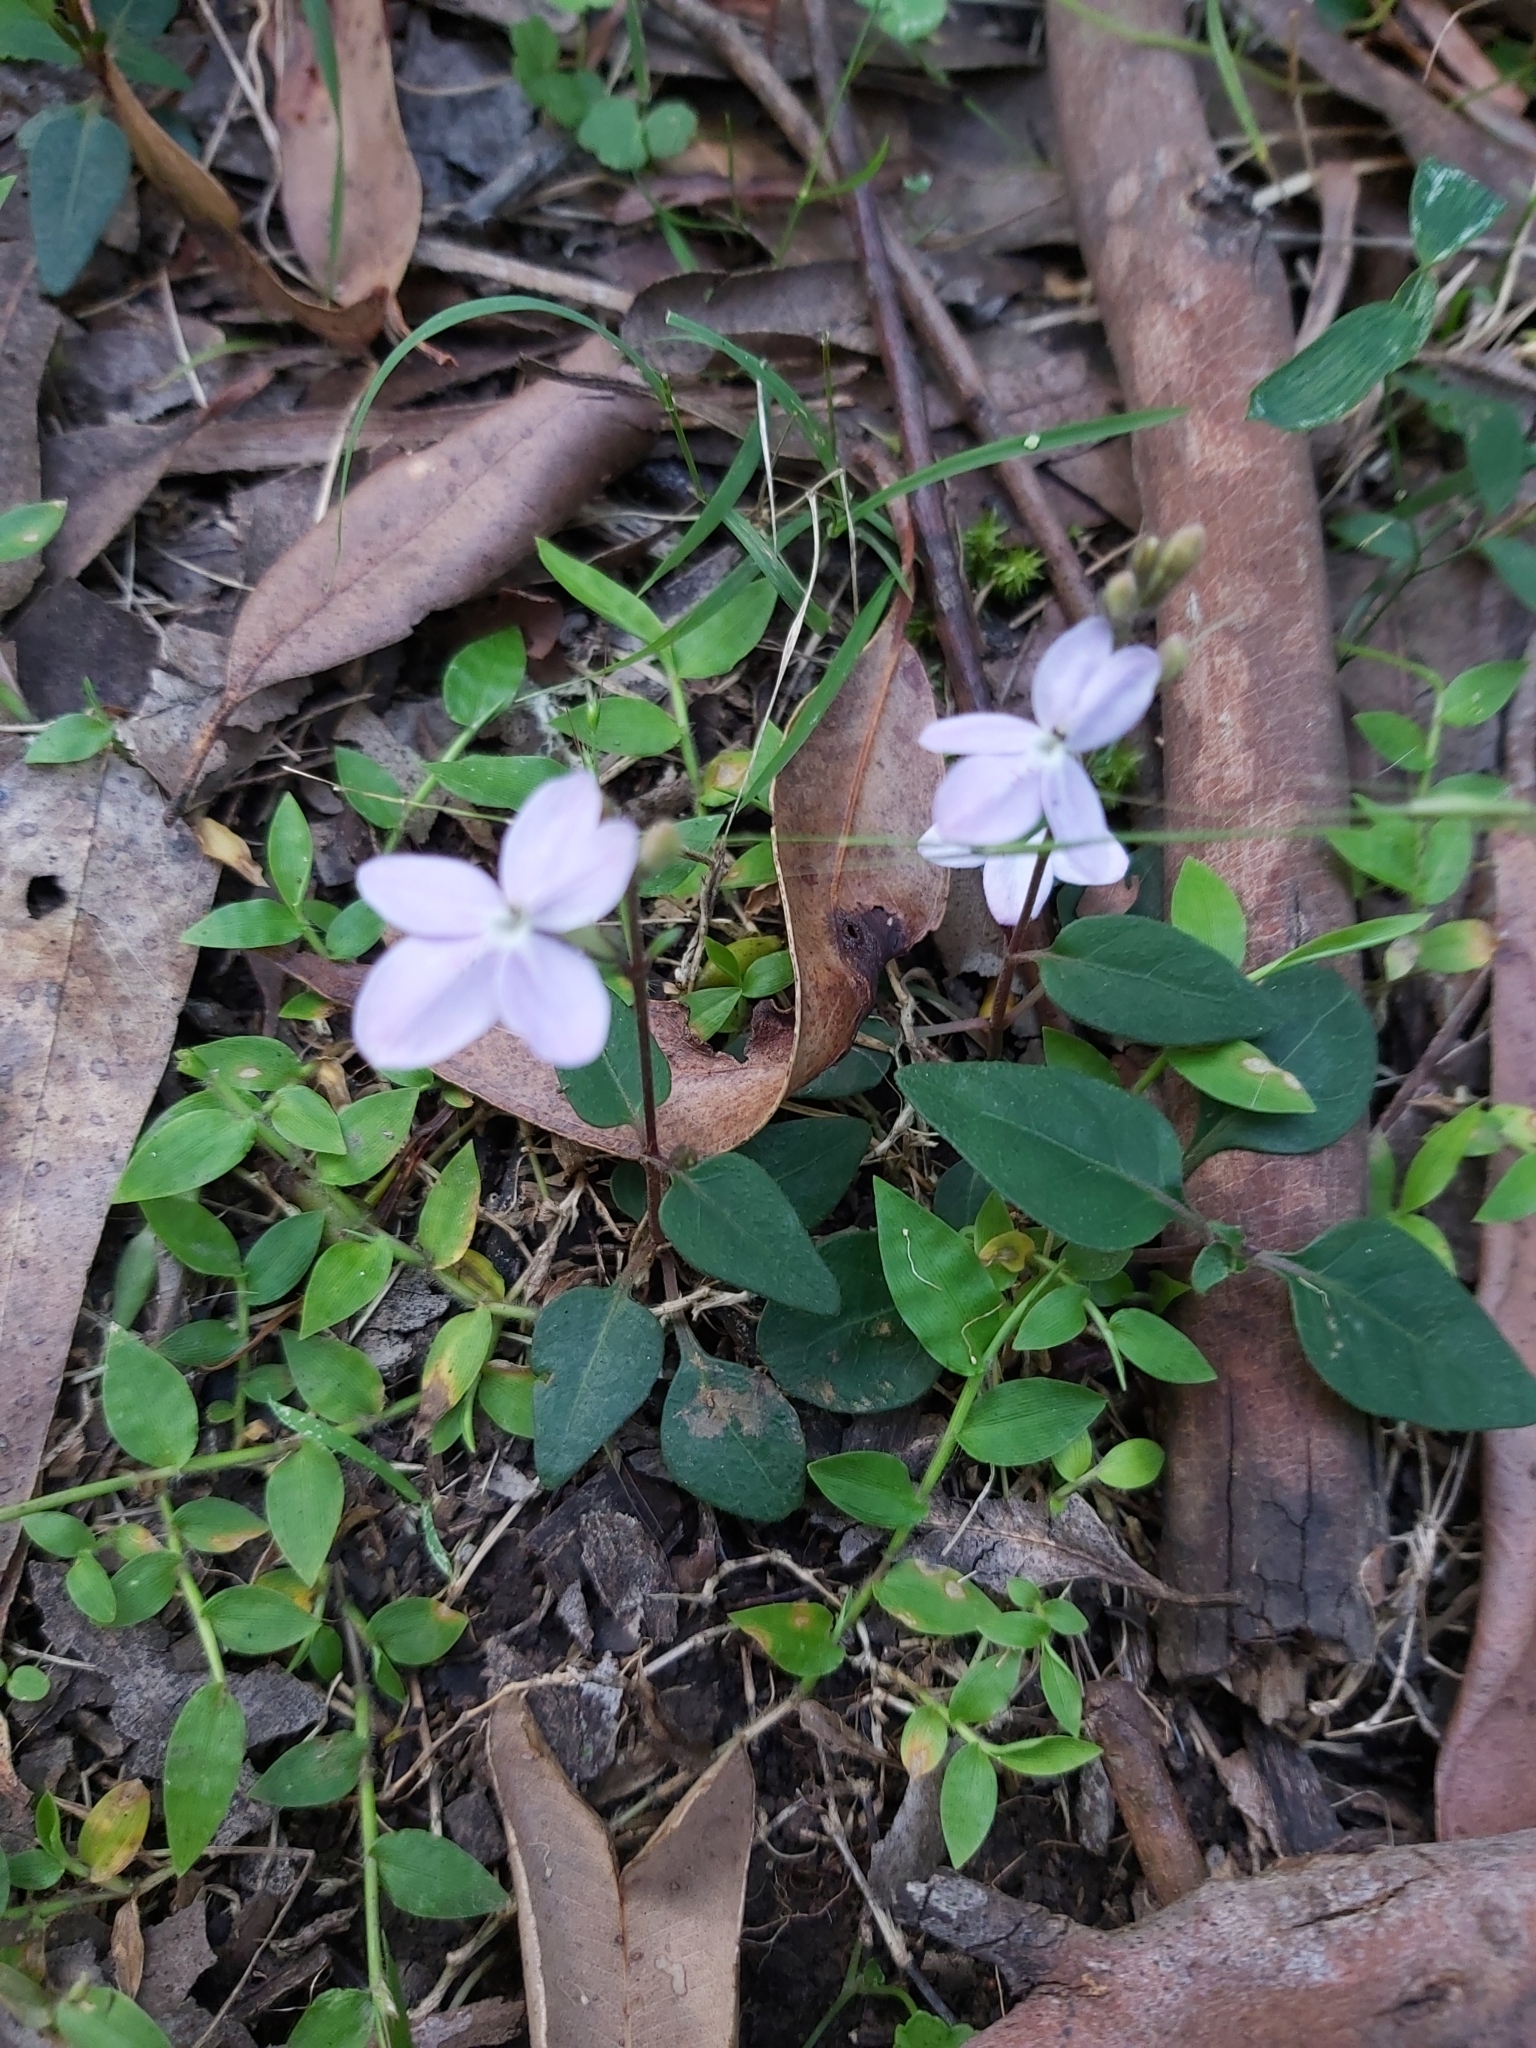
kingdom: Plantae
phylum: Tracheophyta
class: Magnoliopsida
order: Lamiales
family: Acanthaceae
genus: Pseuderanthemum
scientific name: Pseuderanthemum variabile
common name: Night and afternoon
